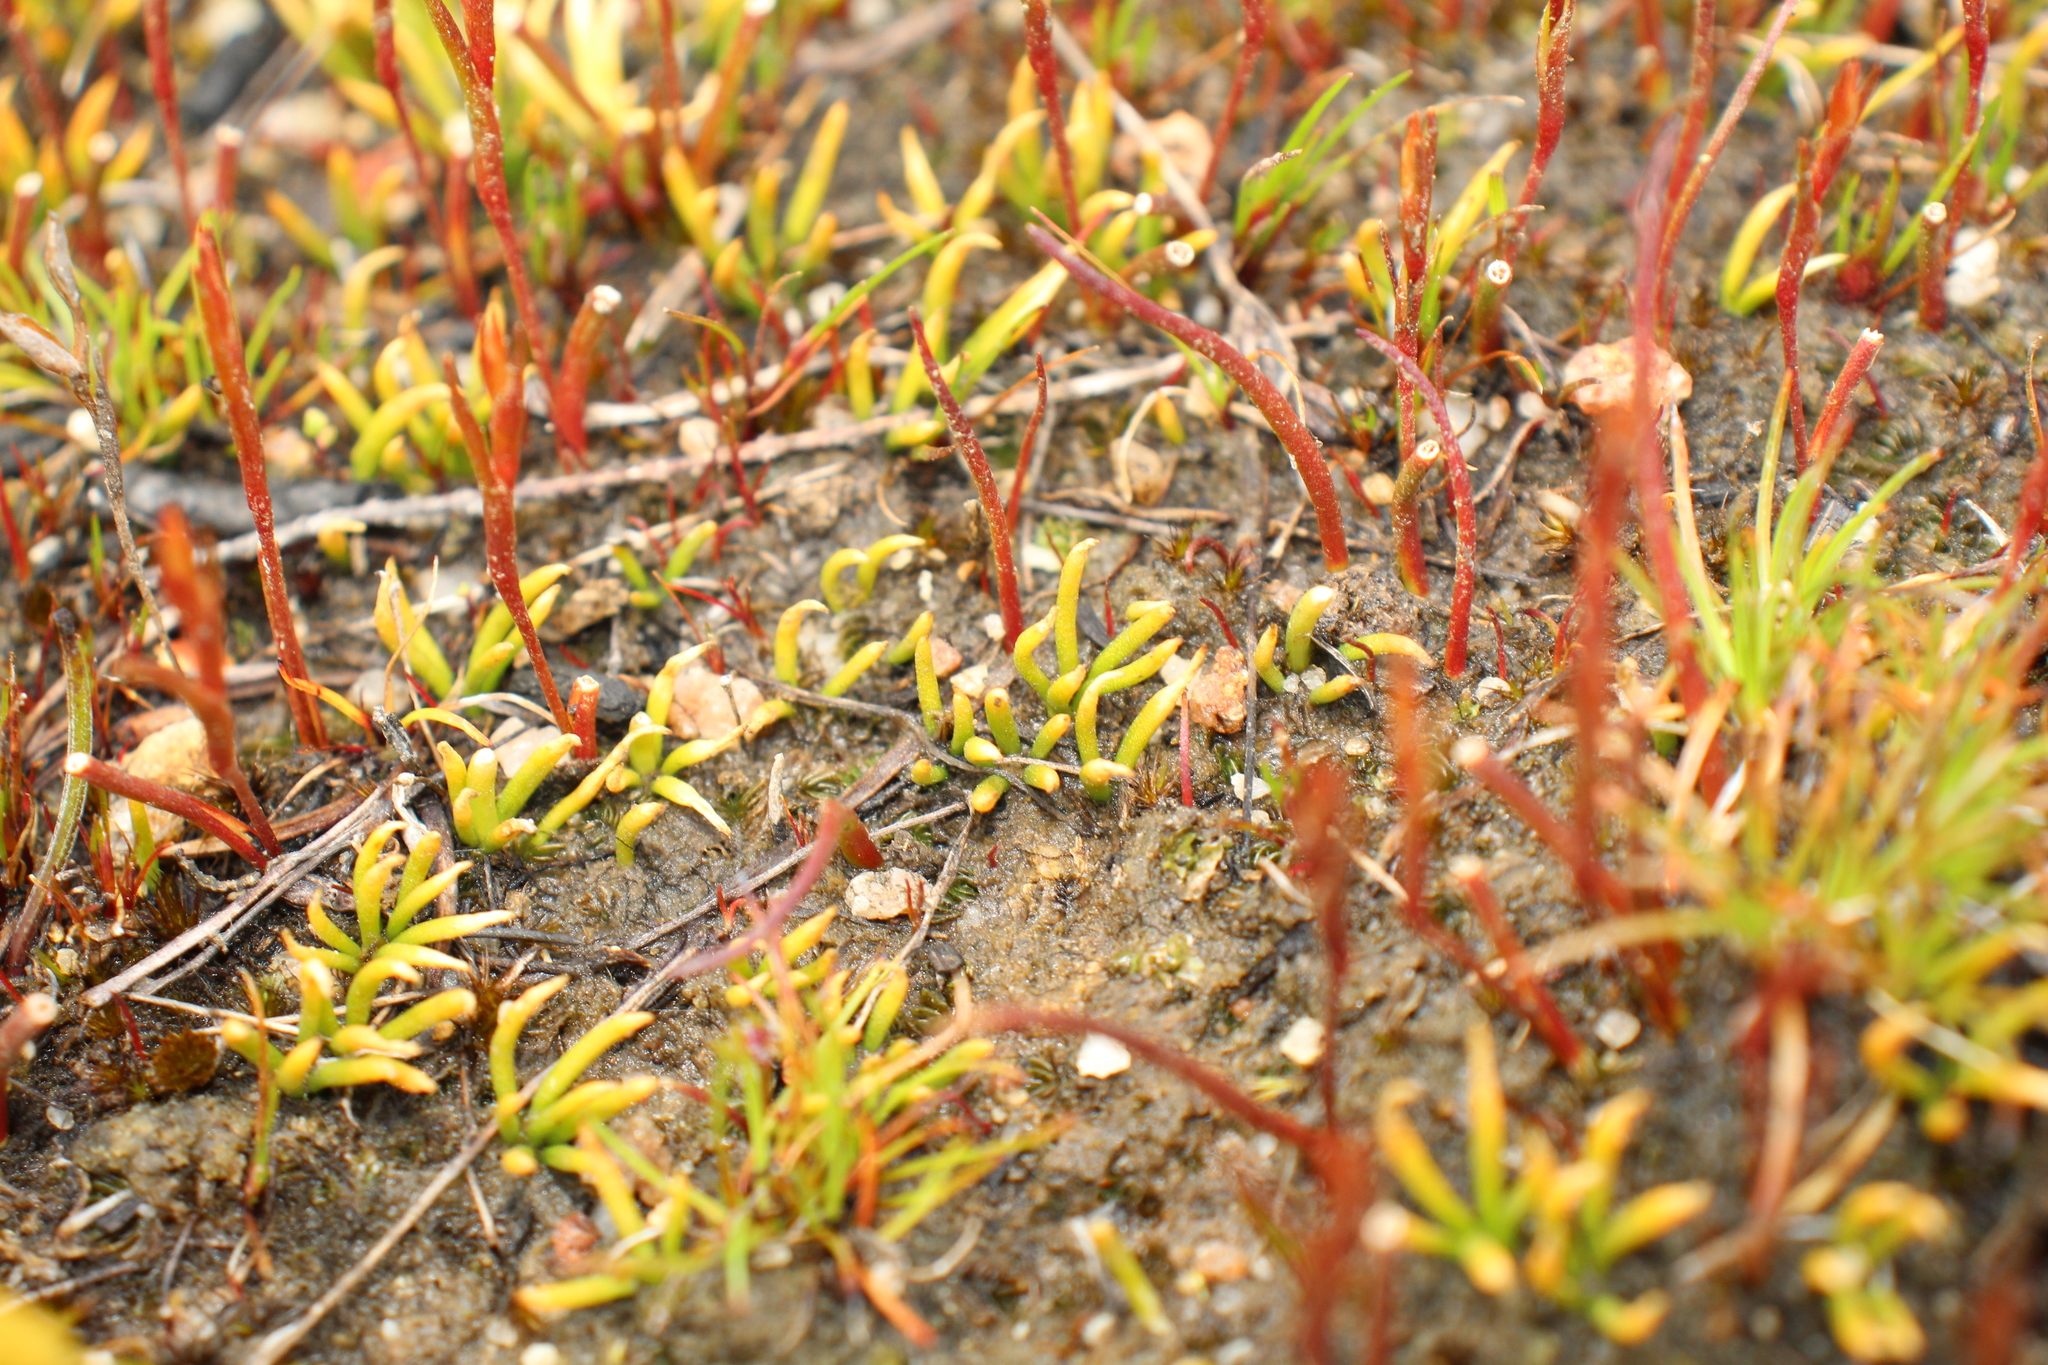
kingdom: Plantae
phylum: Tracheophyta
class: Lycopodiopsida
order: Lycopodiales
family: Lycopodiaceae
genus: Phylloglossum
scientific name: Phylloglossum drummondii
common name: Pigmy-club-moss
